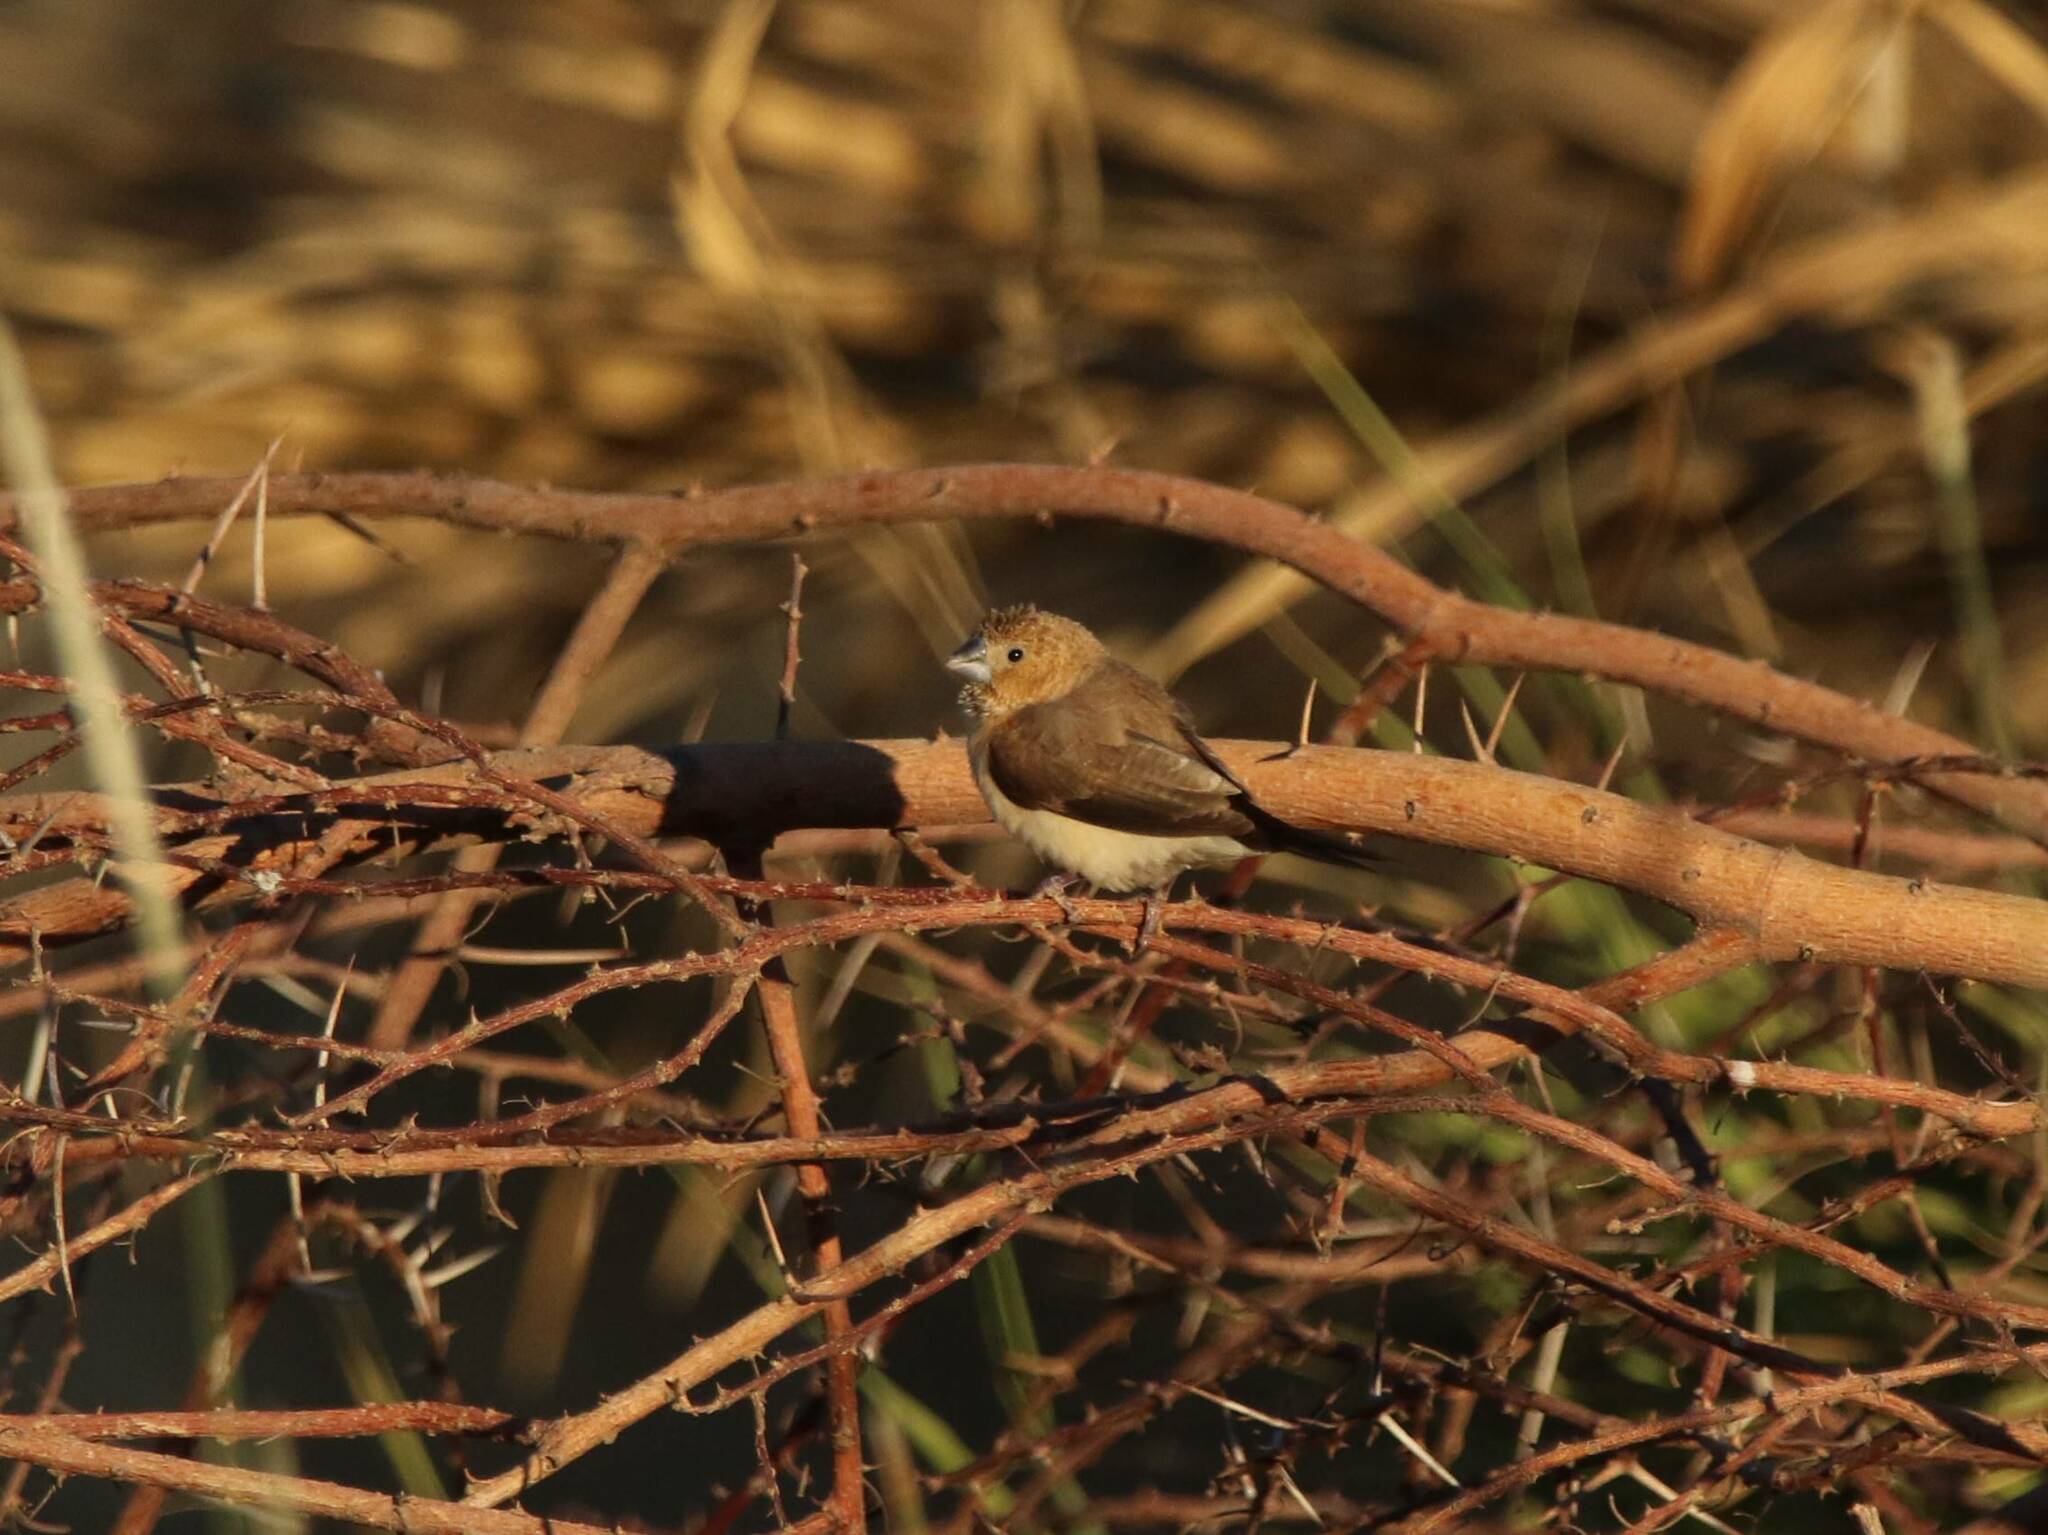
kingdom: Animalia
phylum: Chordata
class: Aves
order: Passeriformes
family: Estrildidae
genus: Euodice
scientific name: Euodice cantans
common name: African silverbill
